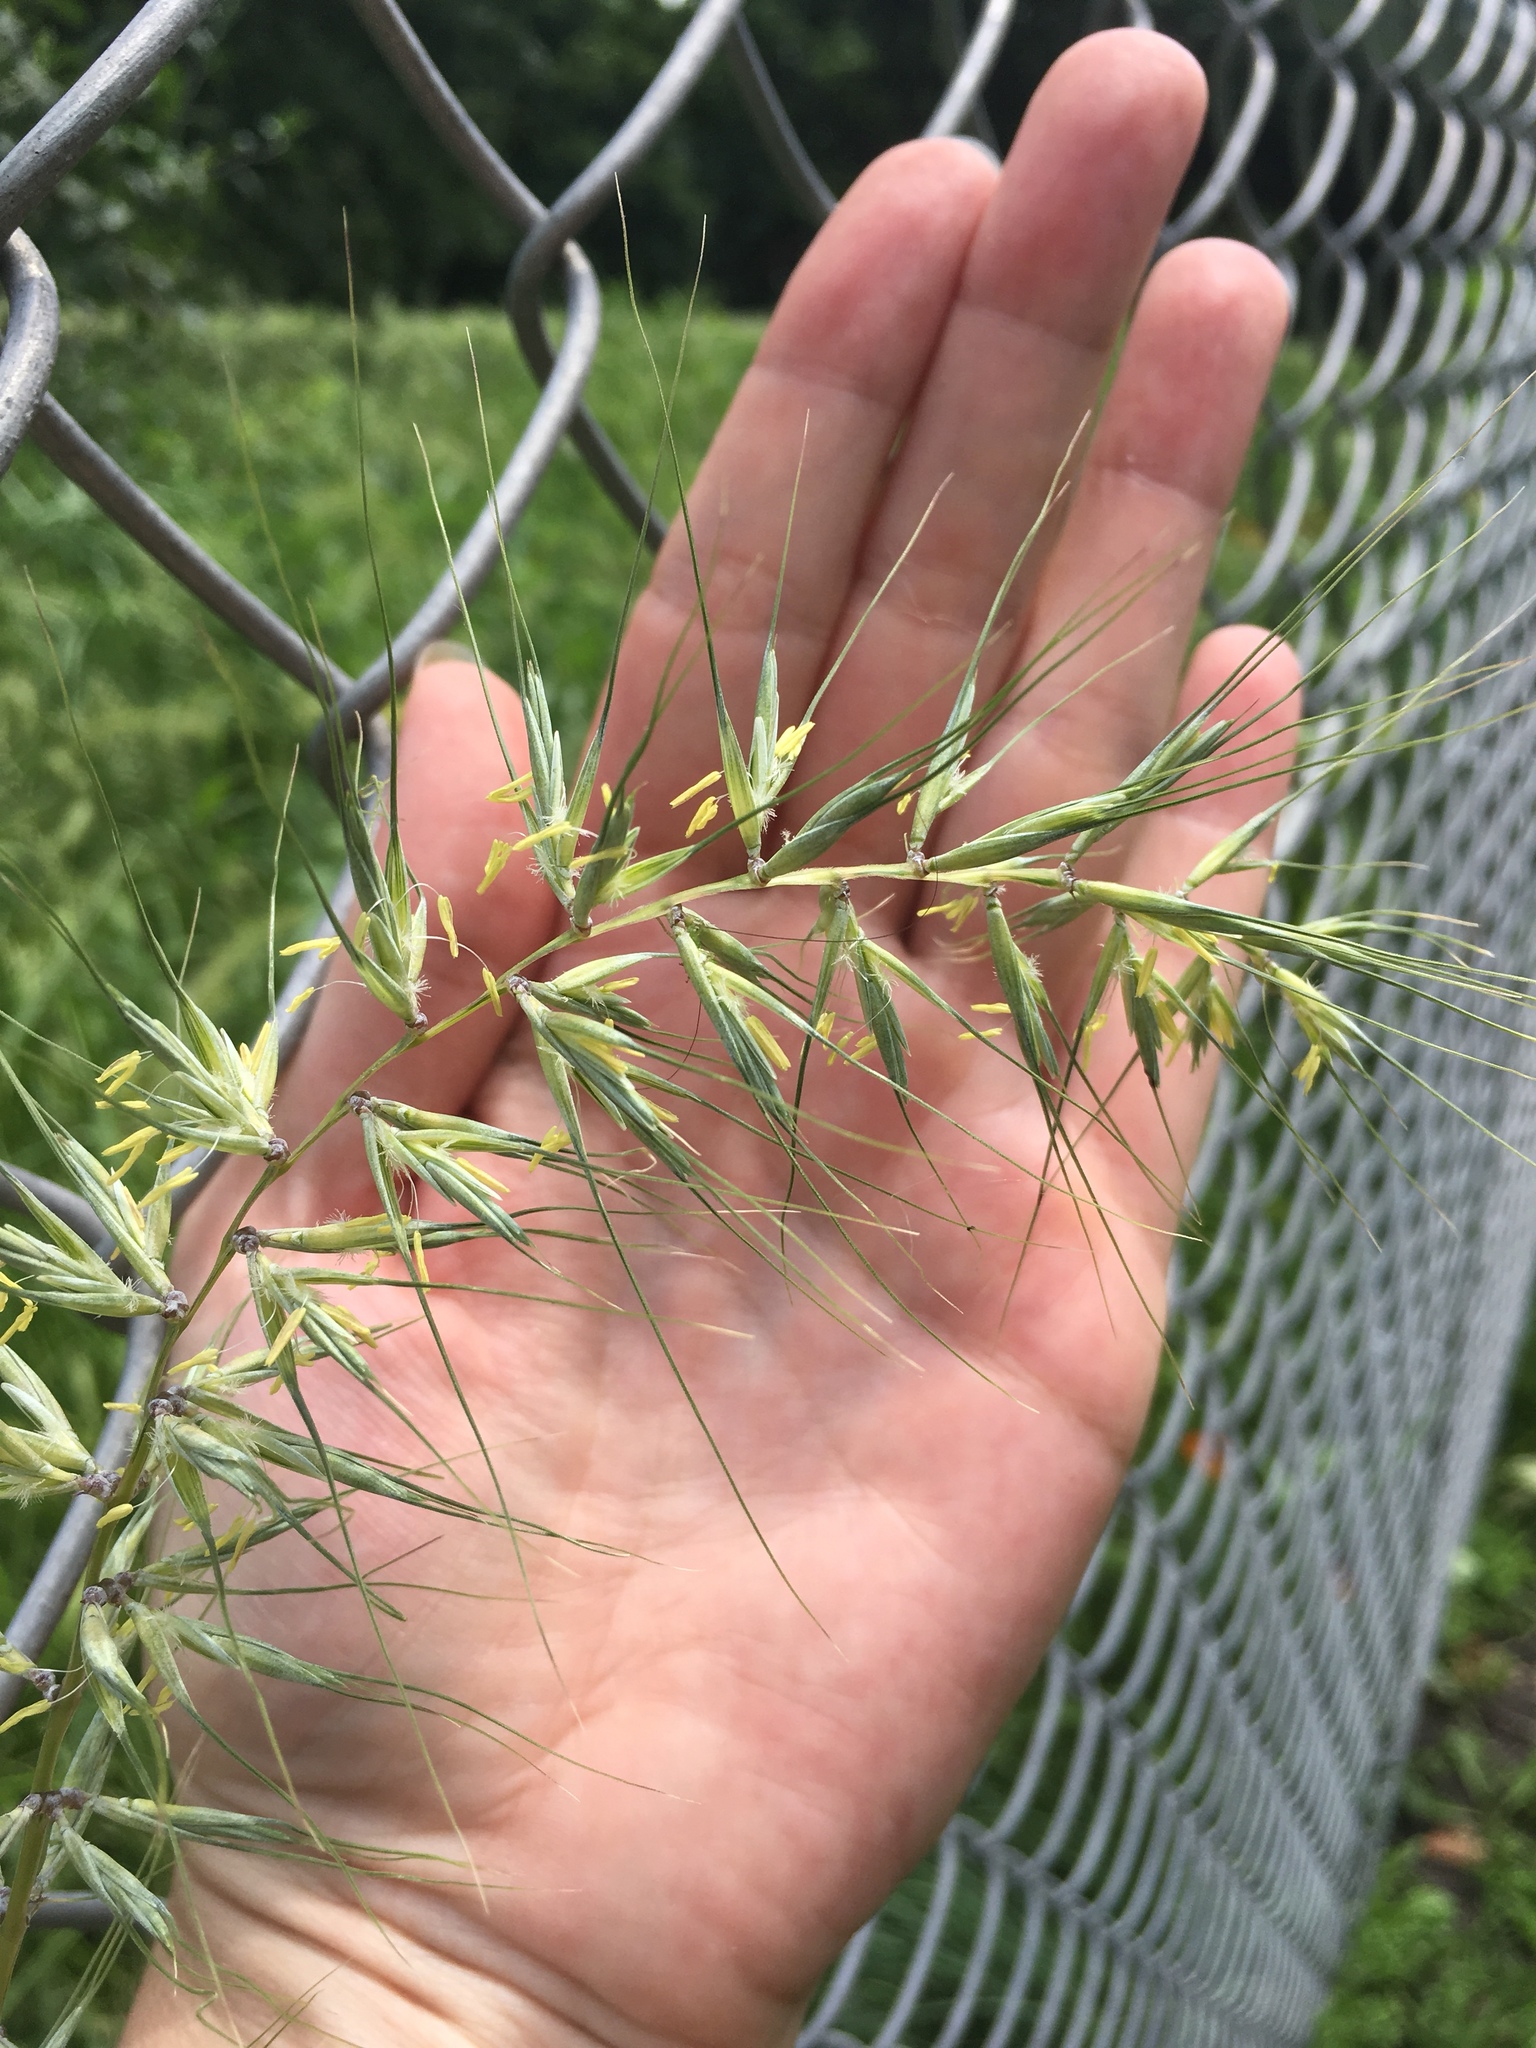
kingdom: Plantae
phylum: Tracheophyta
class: Liliopsida
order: Poales
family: Poaceae
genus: Elymus
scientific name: Elymus hystrix
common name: Bottlebrush grass
